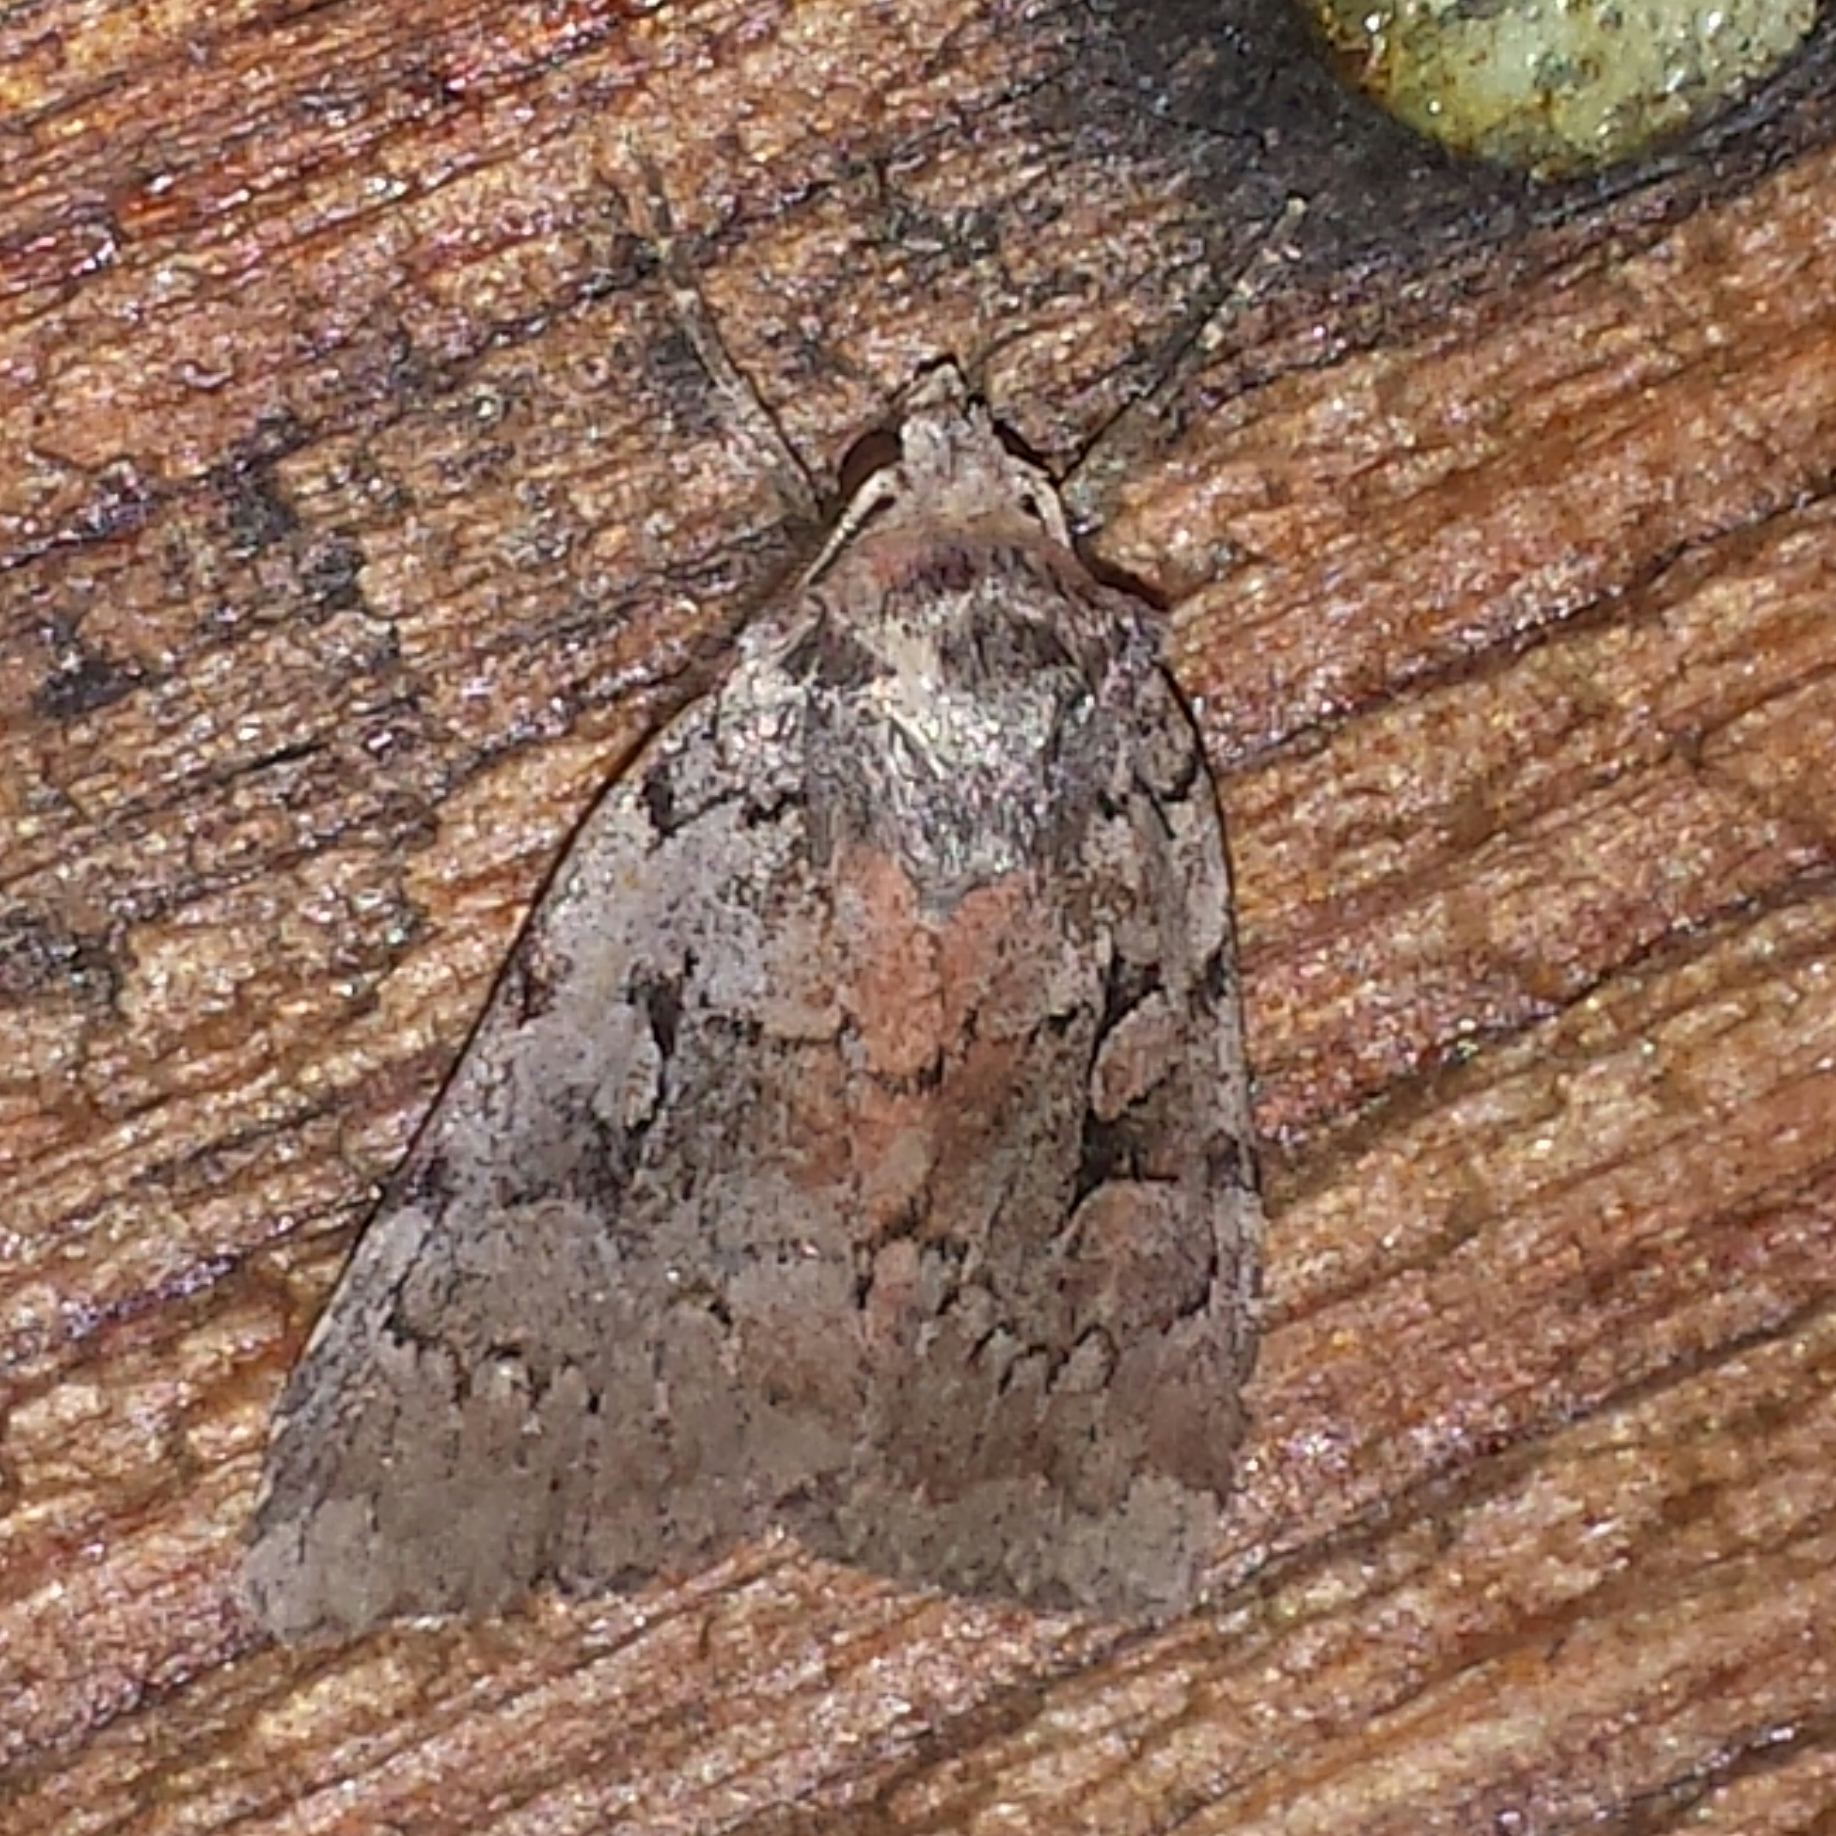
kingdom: Animalia
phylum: Arthropoda
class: Insecta
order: Lepidoptera
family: Noctuidae
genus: Xestia
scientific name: Xestia badicollis
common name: Northern variable dart
